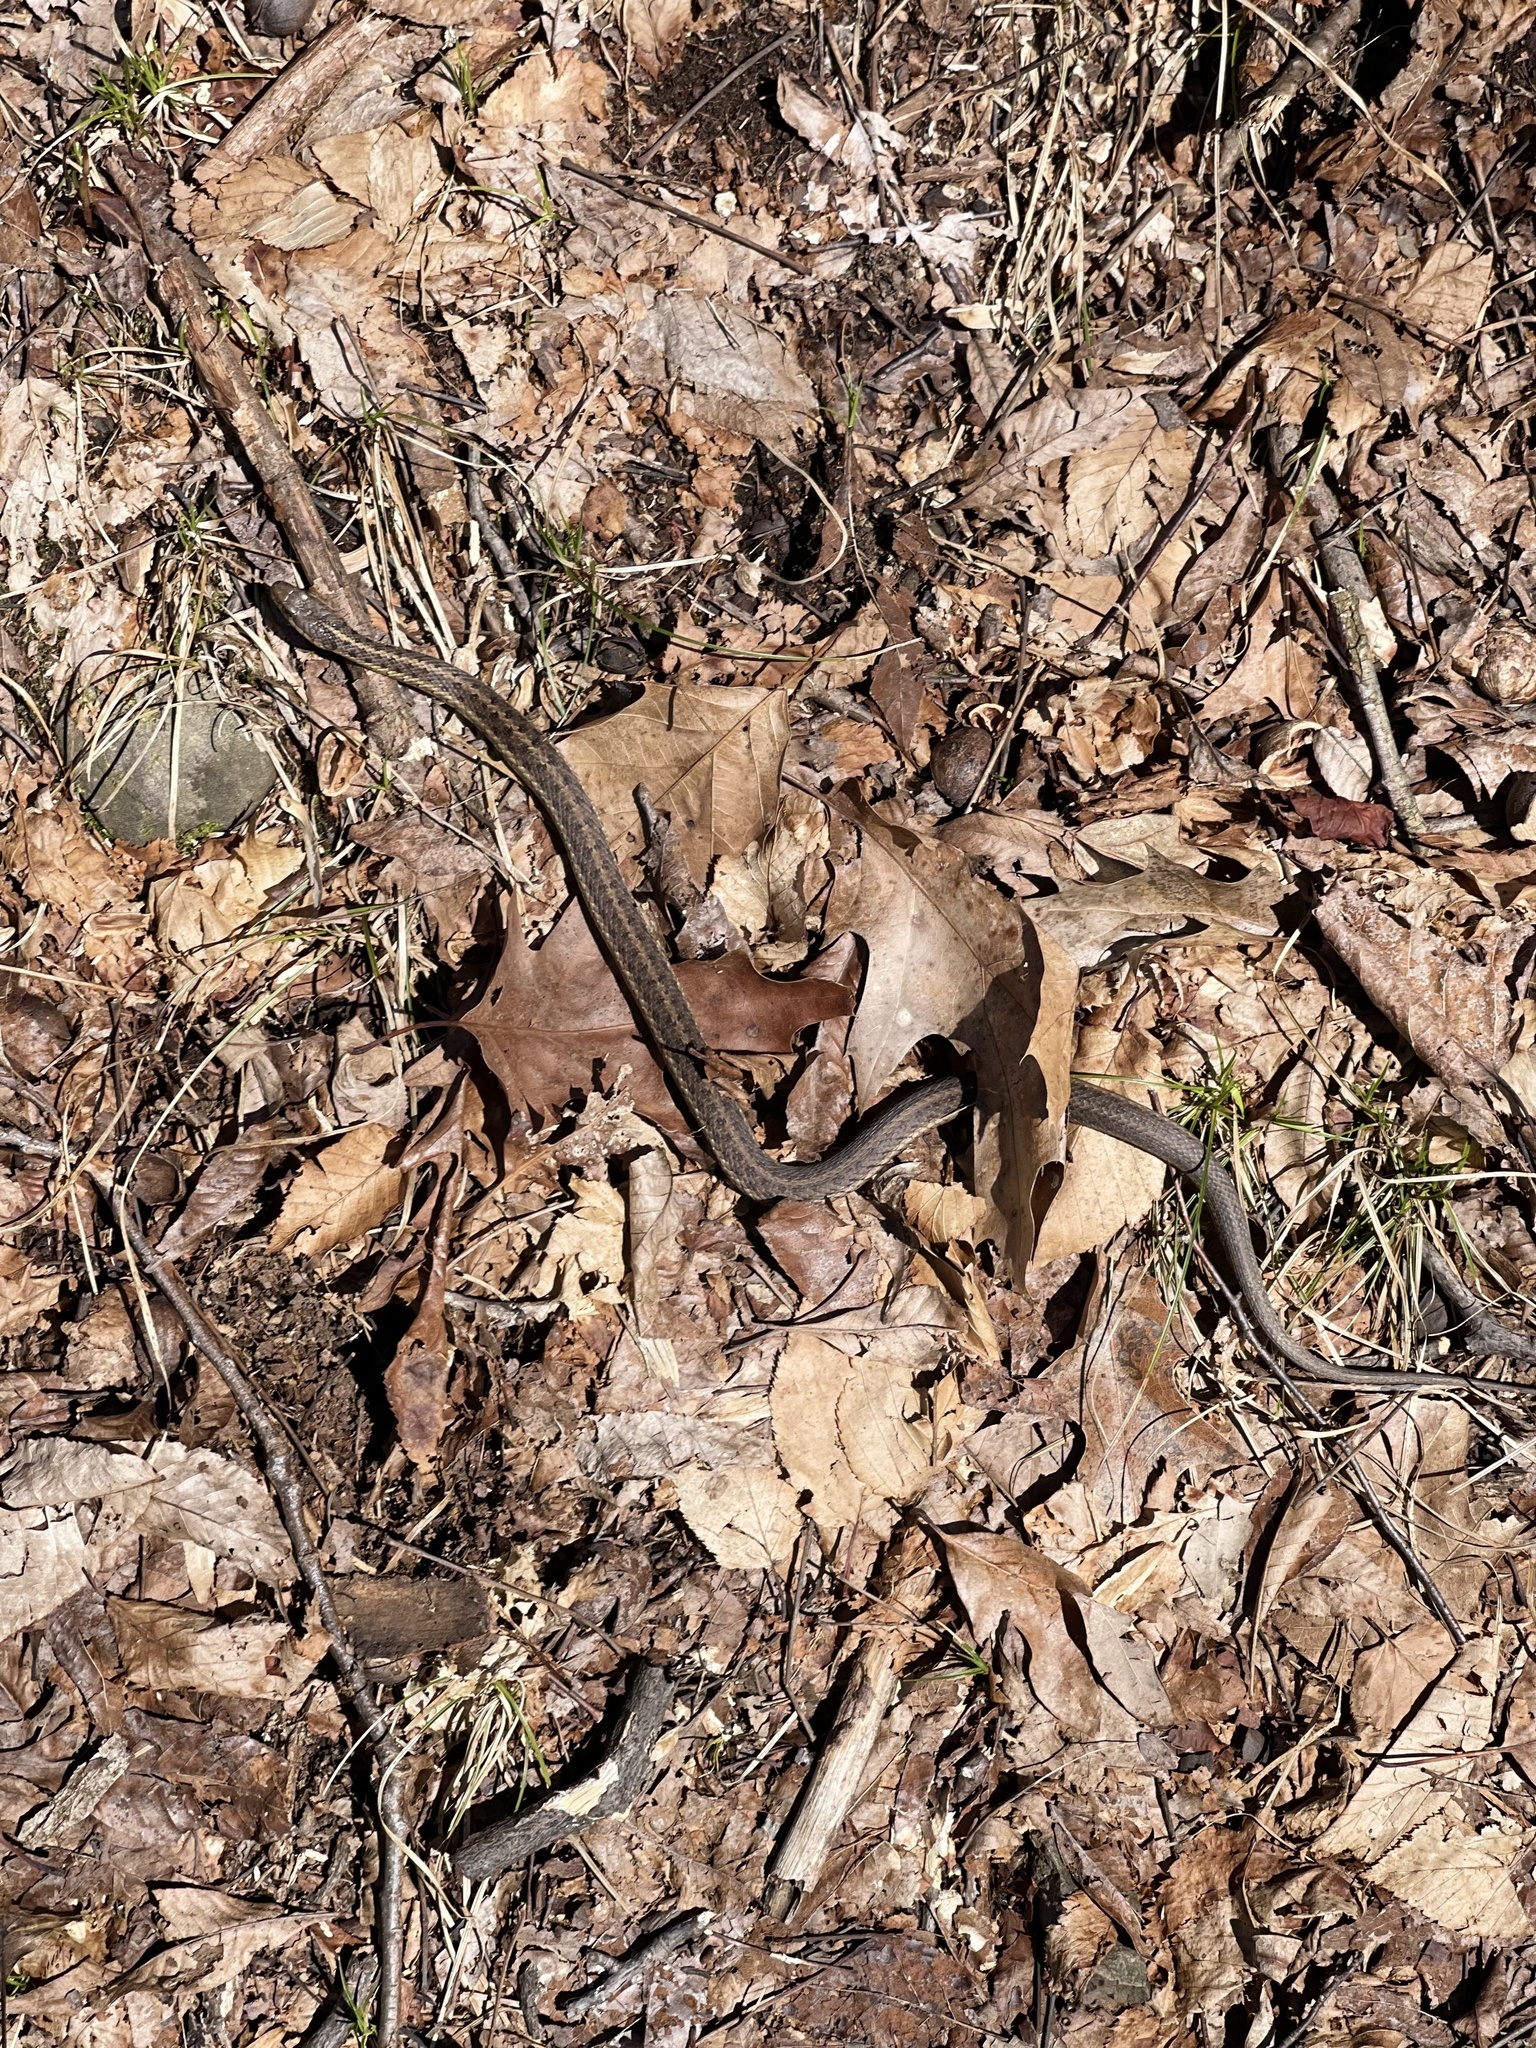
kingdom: Animalia
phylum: Chordata
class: Squamata
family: Colubridae
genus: Thamnophis
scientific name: Thamnophis sirtalis
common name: Common garter snake
